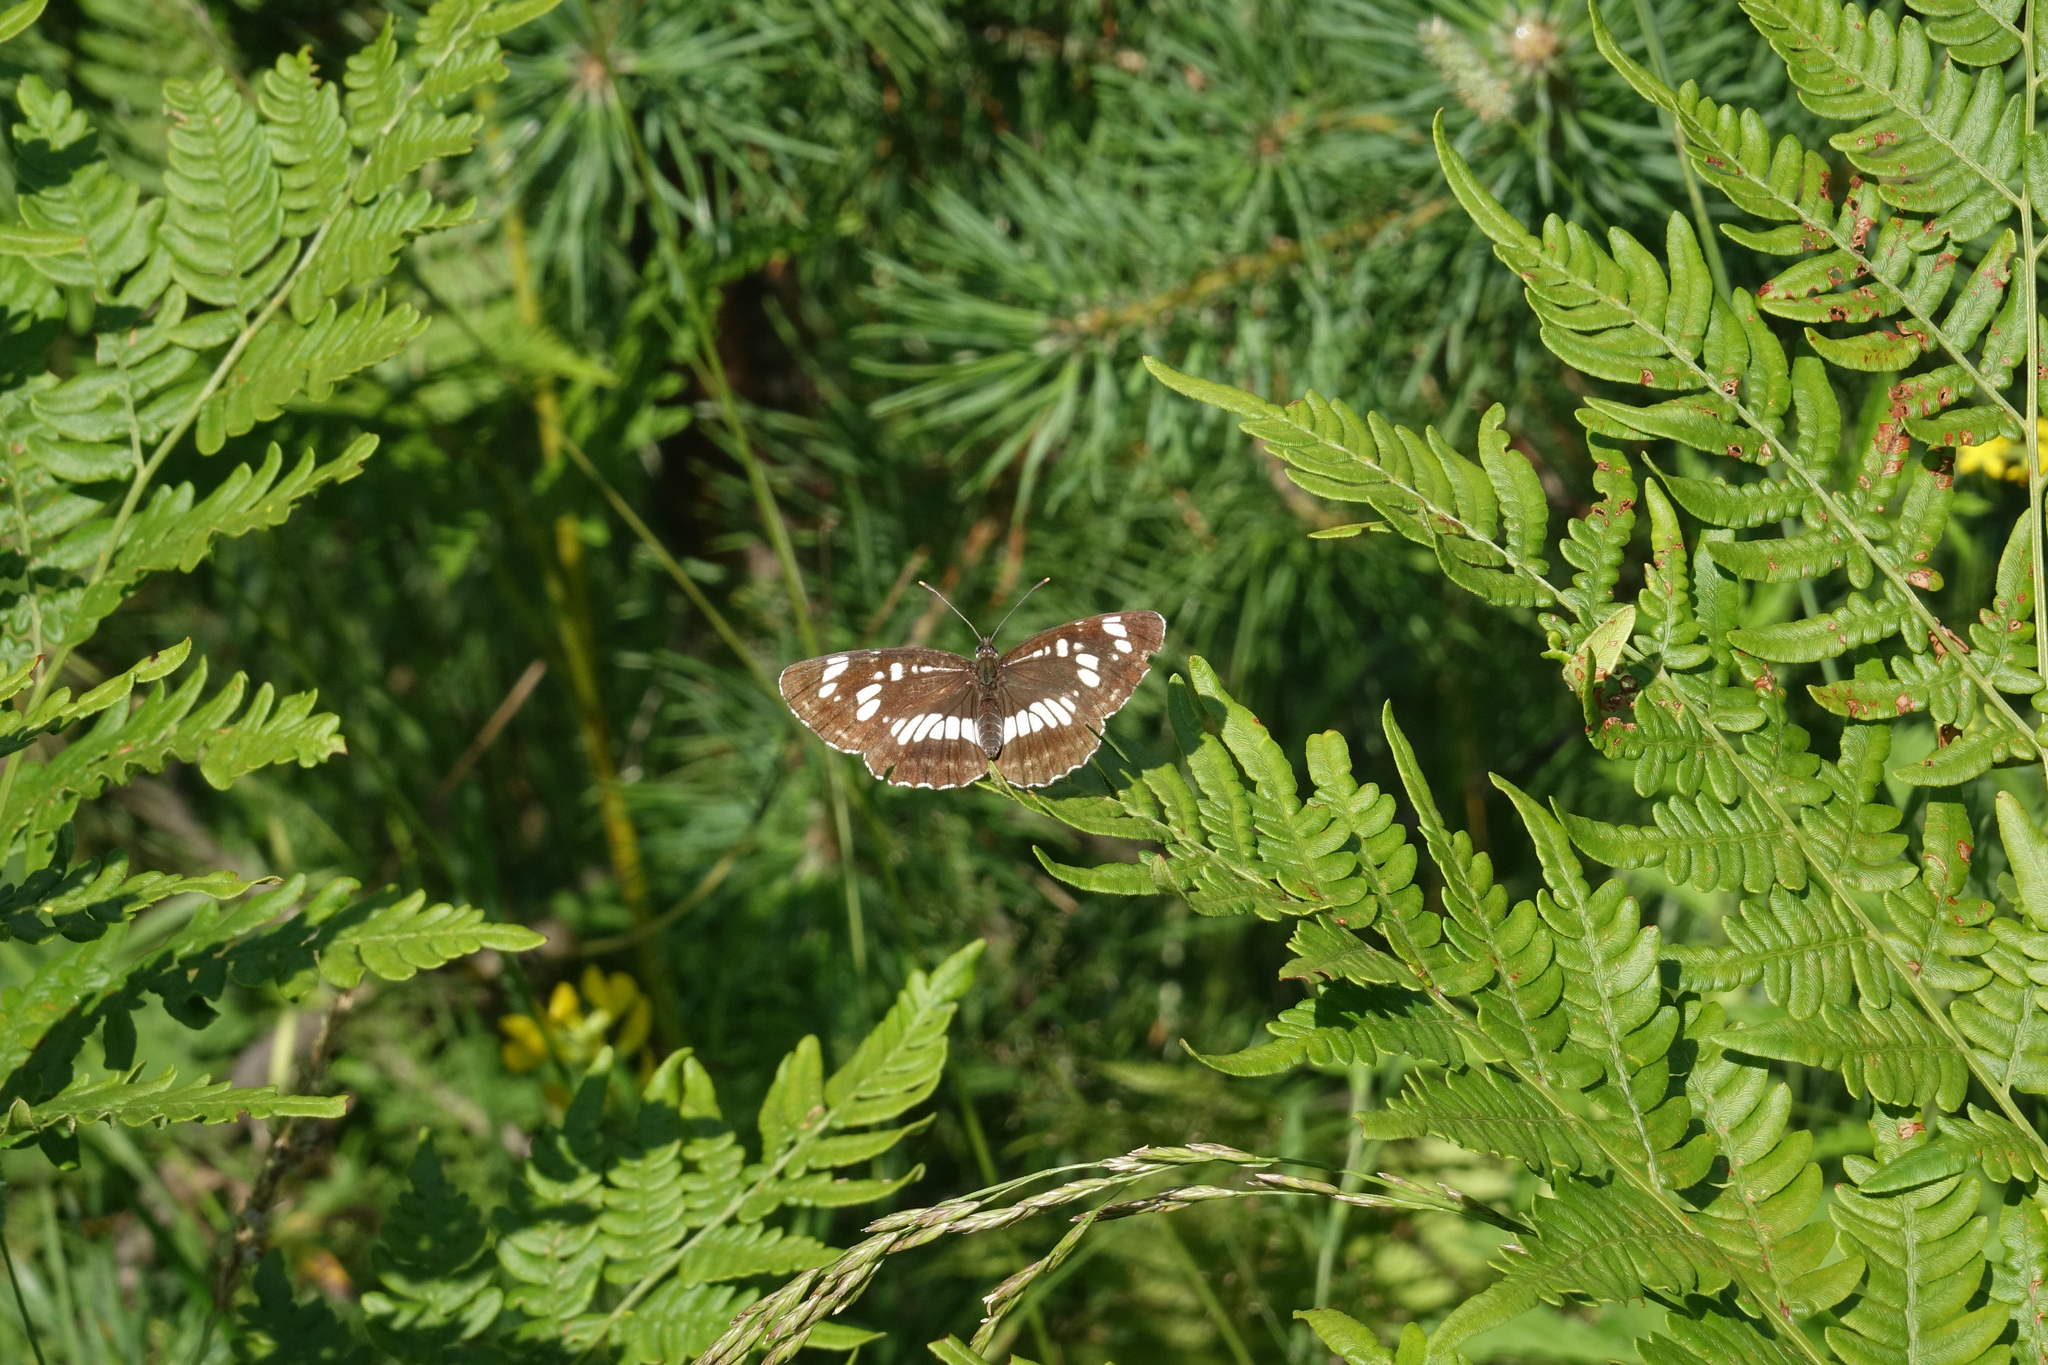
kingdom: Animalia
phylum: Arthropoda
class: Insecta
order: Lepidoptera
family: Nymphalidae
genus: Neptis
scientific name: Neptis rivularis
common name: Hungarian glider
